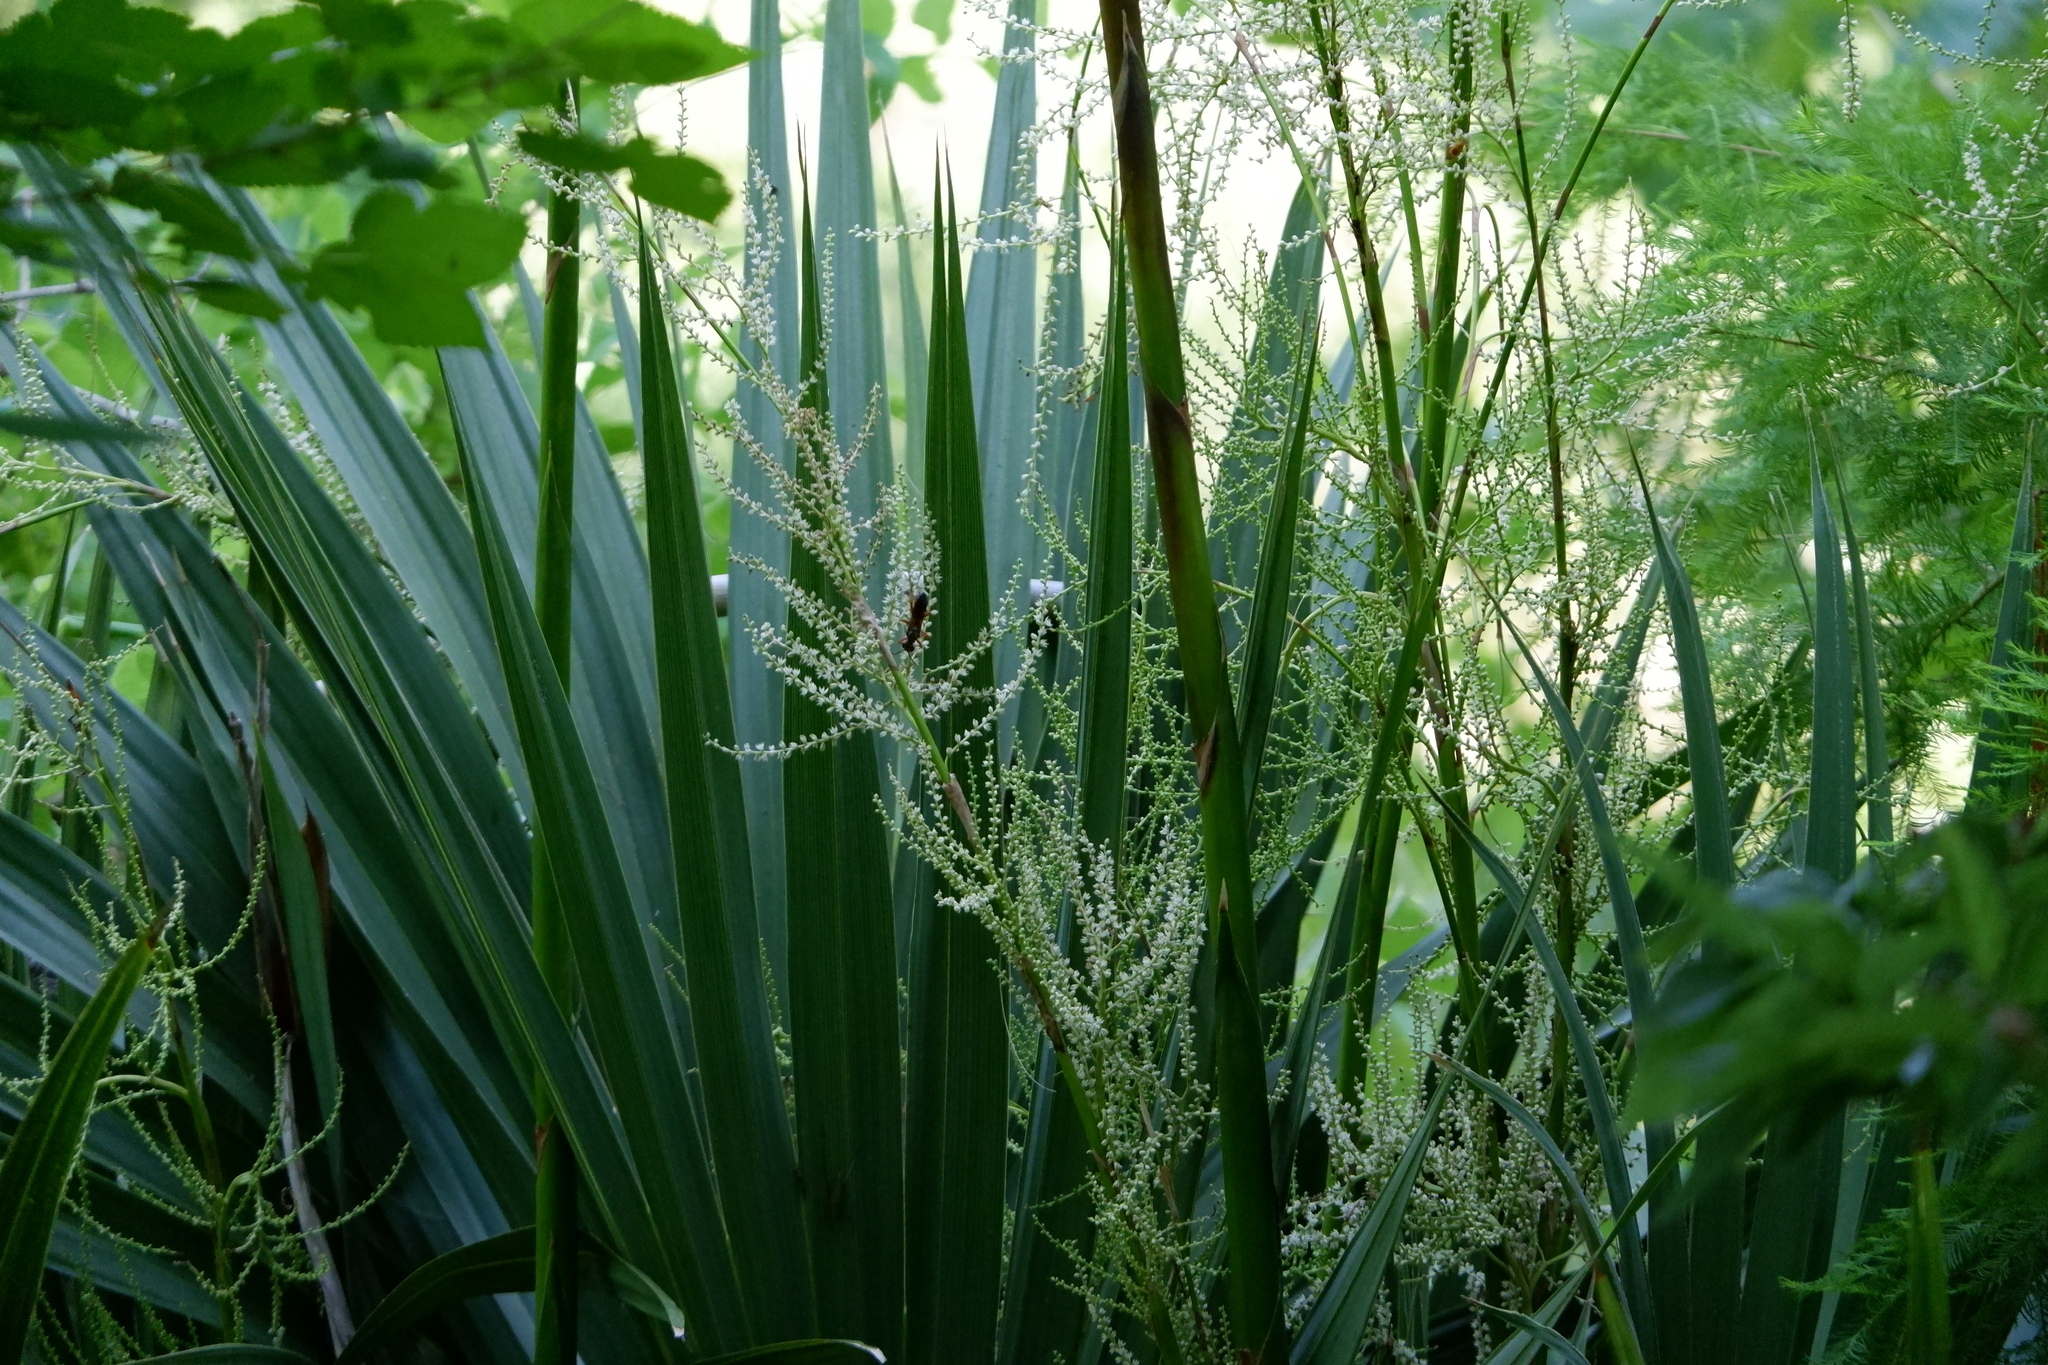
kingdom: Plantae
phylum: Tracheophyta
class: Liliopsida
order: Arecales
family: Arecaceae
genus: Sabal
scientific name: Sabal minor
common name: Dwarf palmetto
